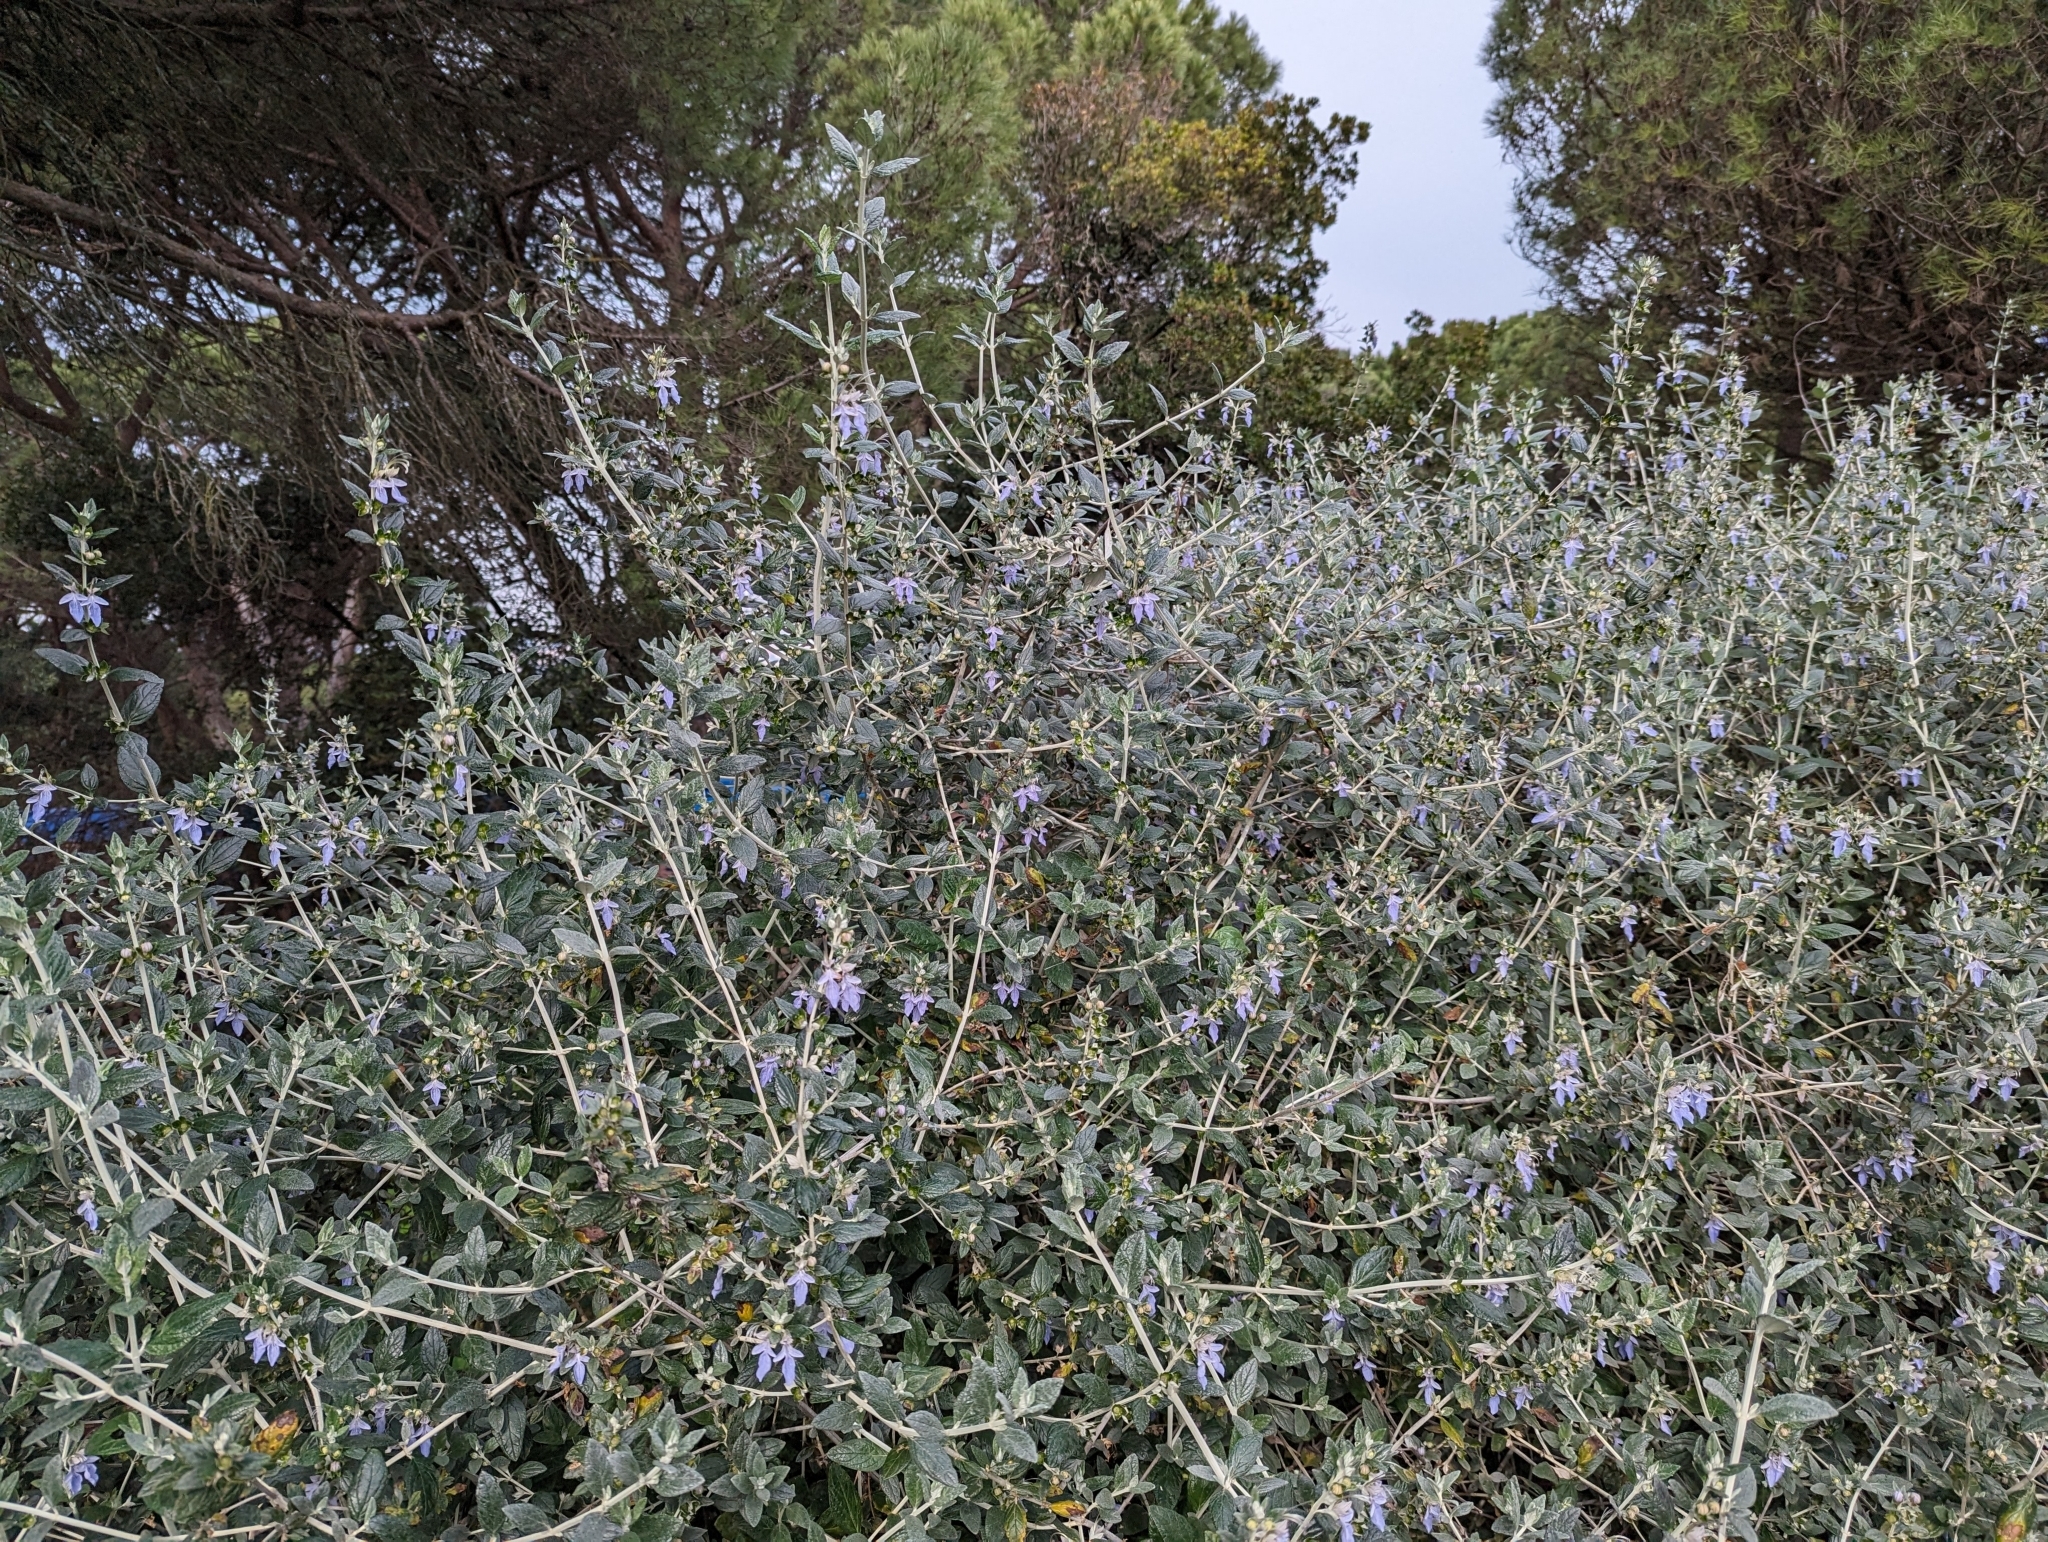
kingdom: Plantae
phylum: Tracheophyta
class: Magnoliopsida
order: Lamiales
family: Lamiaceae
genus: Teucrium
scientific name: Teucrium fruticans
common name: Shrubby germander
